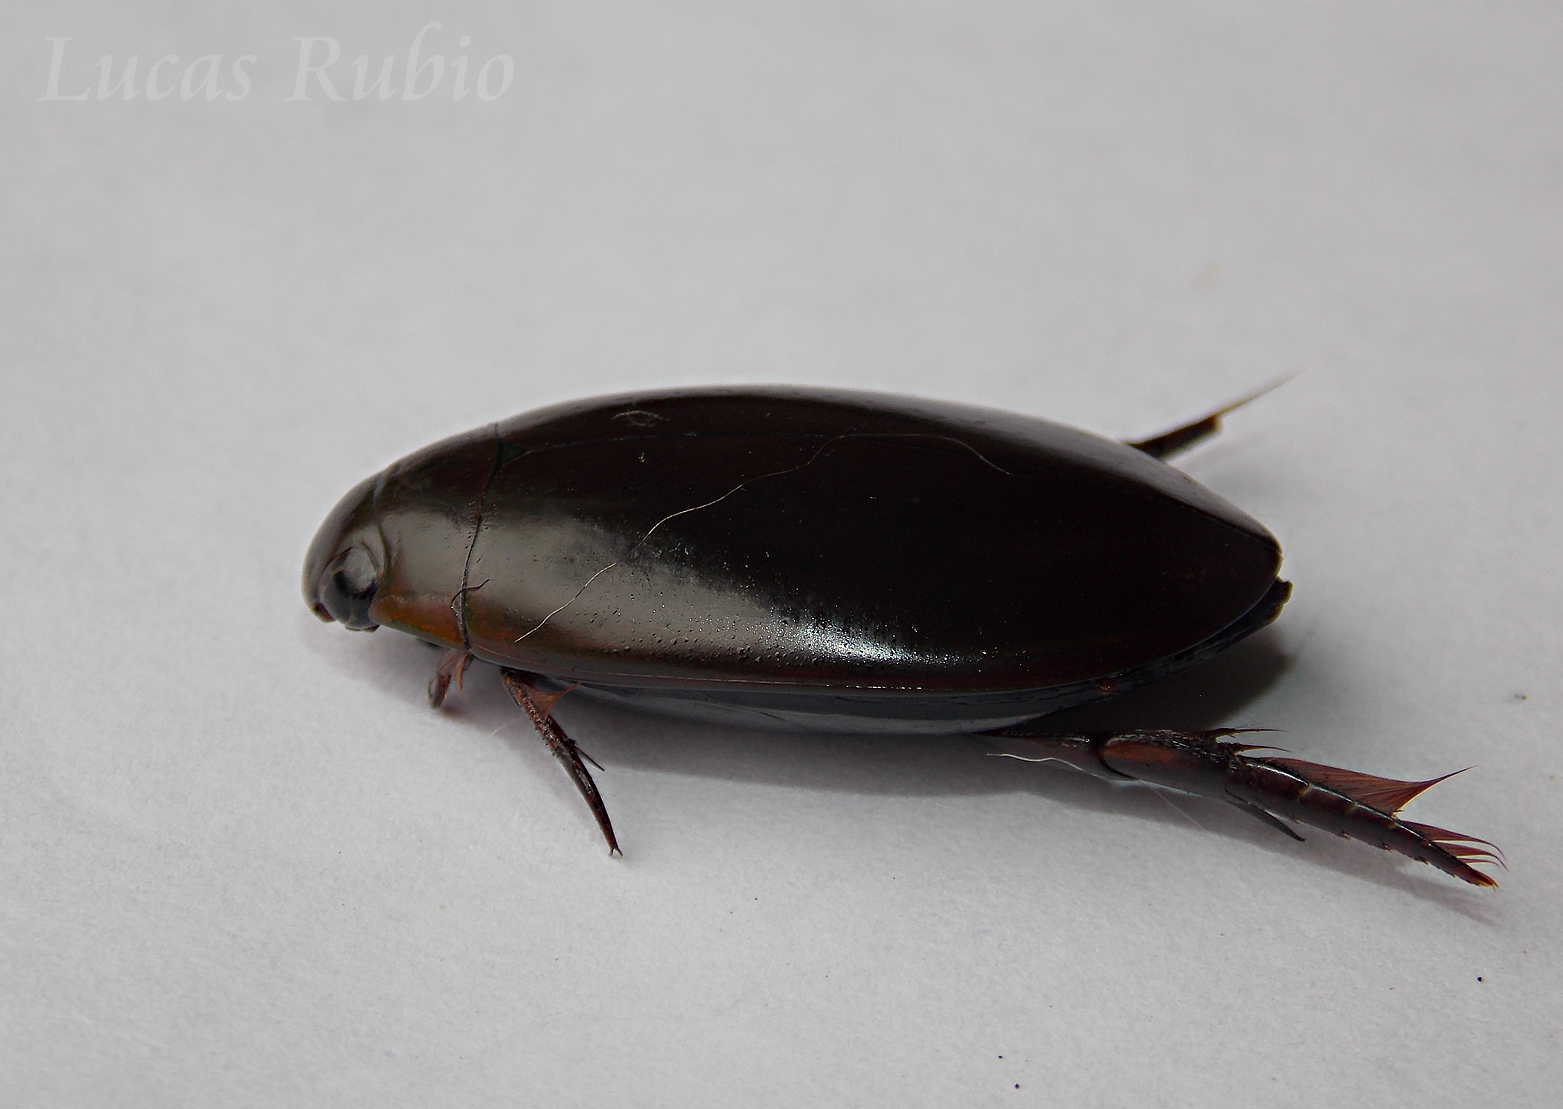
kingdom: Animalia
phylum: Arthropoda
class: Insecta
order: Coleoptera
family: Dytiscidae
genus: Megadytes
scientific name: Megadytes
